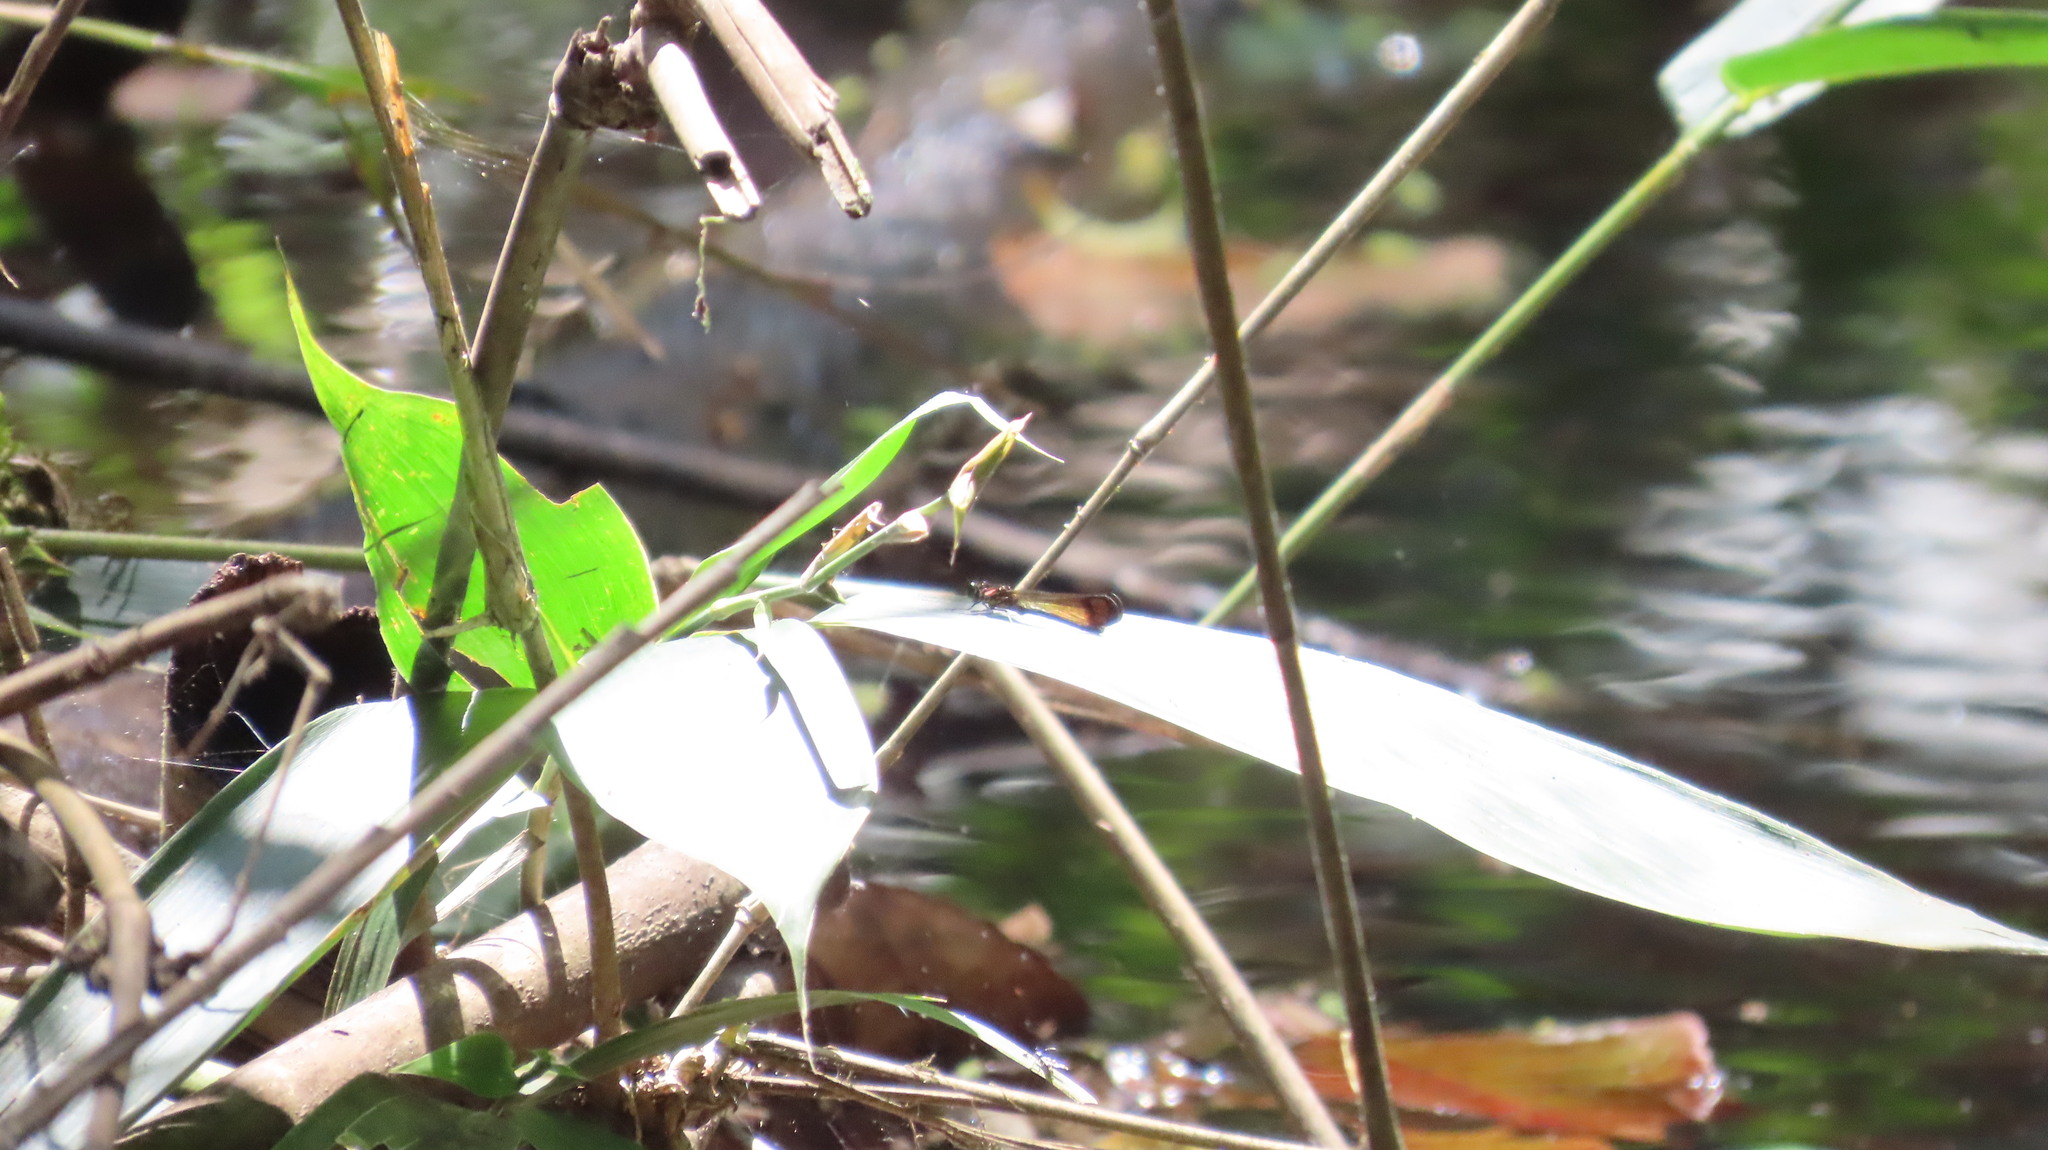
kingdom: Animalia
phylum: Arthropoda
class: Insecta
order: Odonata
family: Chlorocyphidae
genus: Heliocypha
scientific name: Heliocypha bisignata
